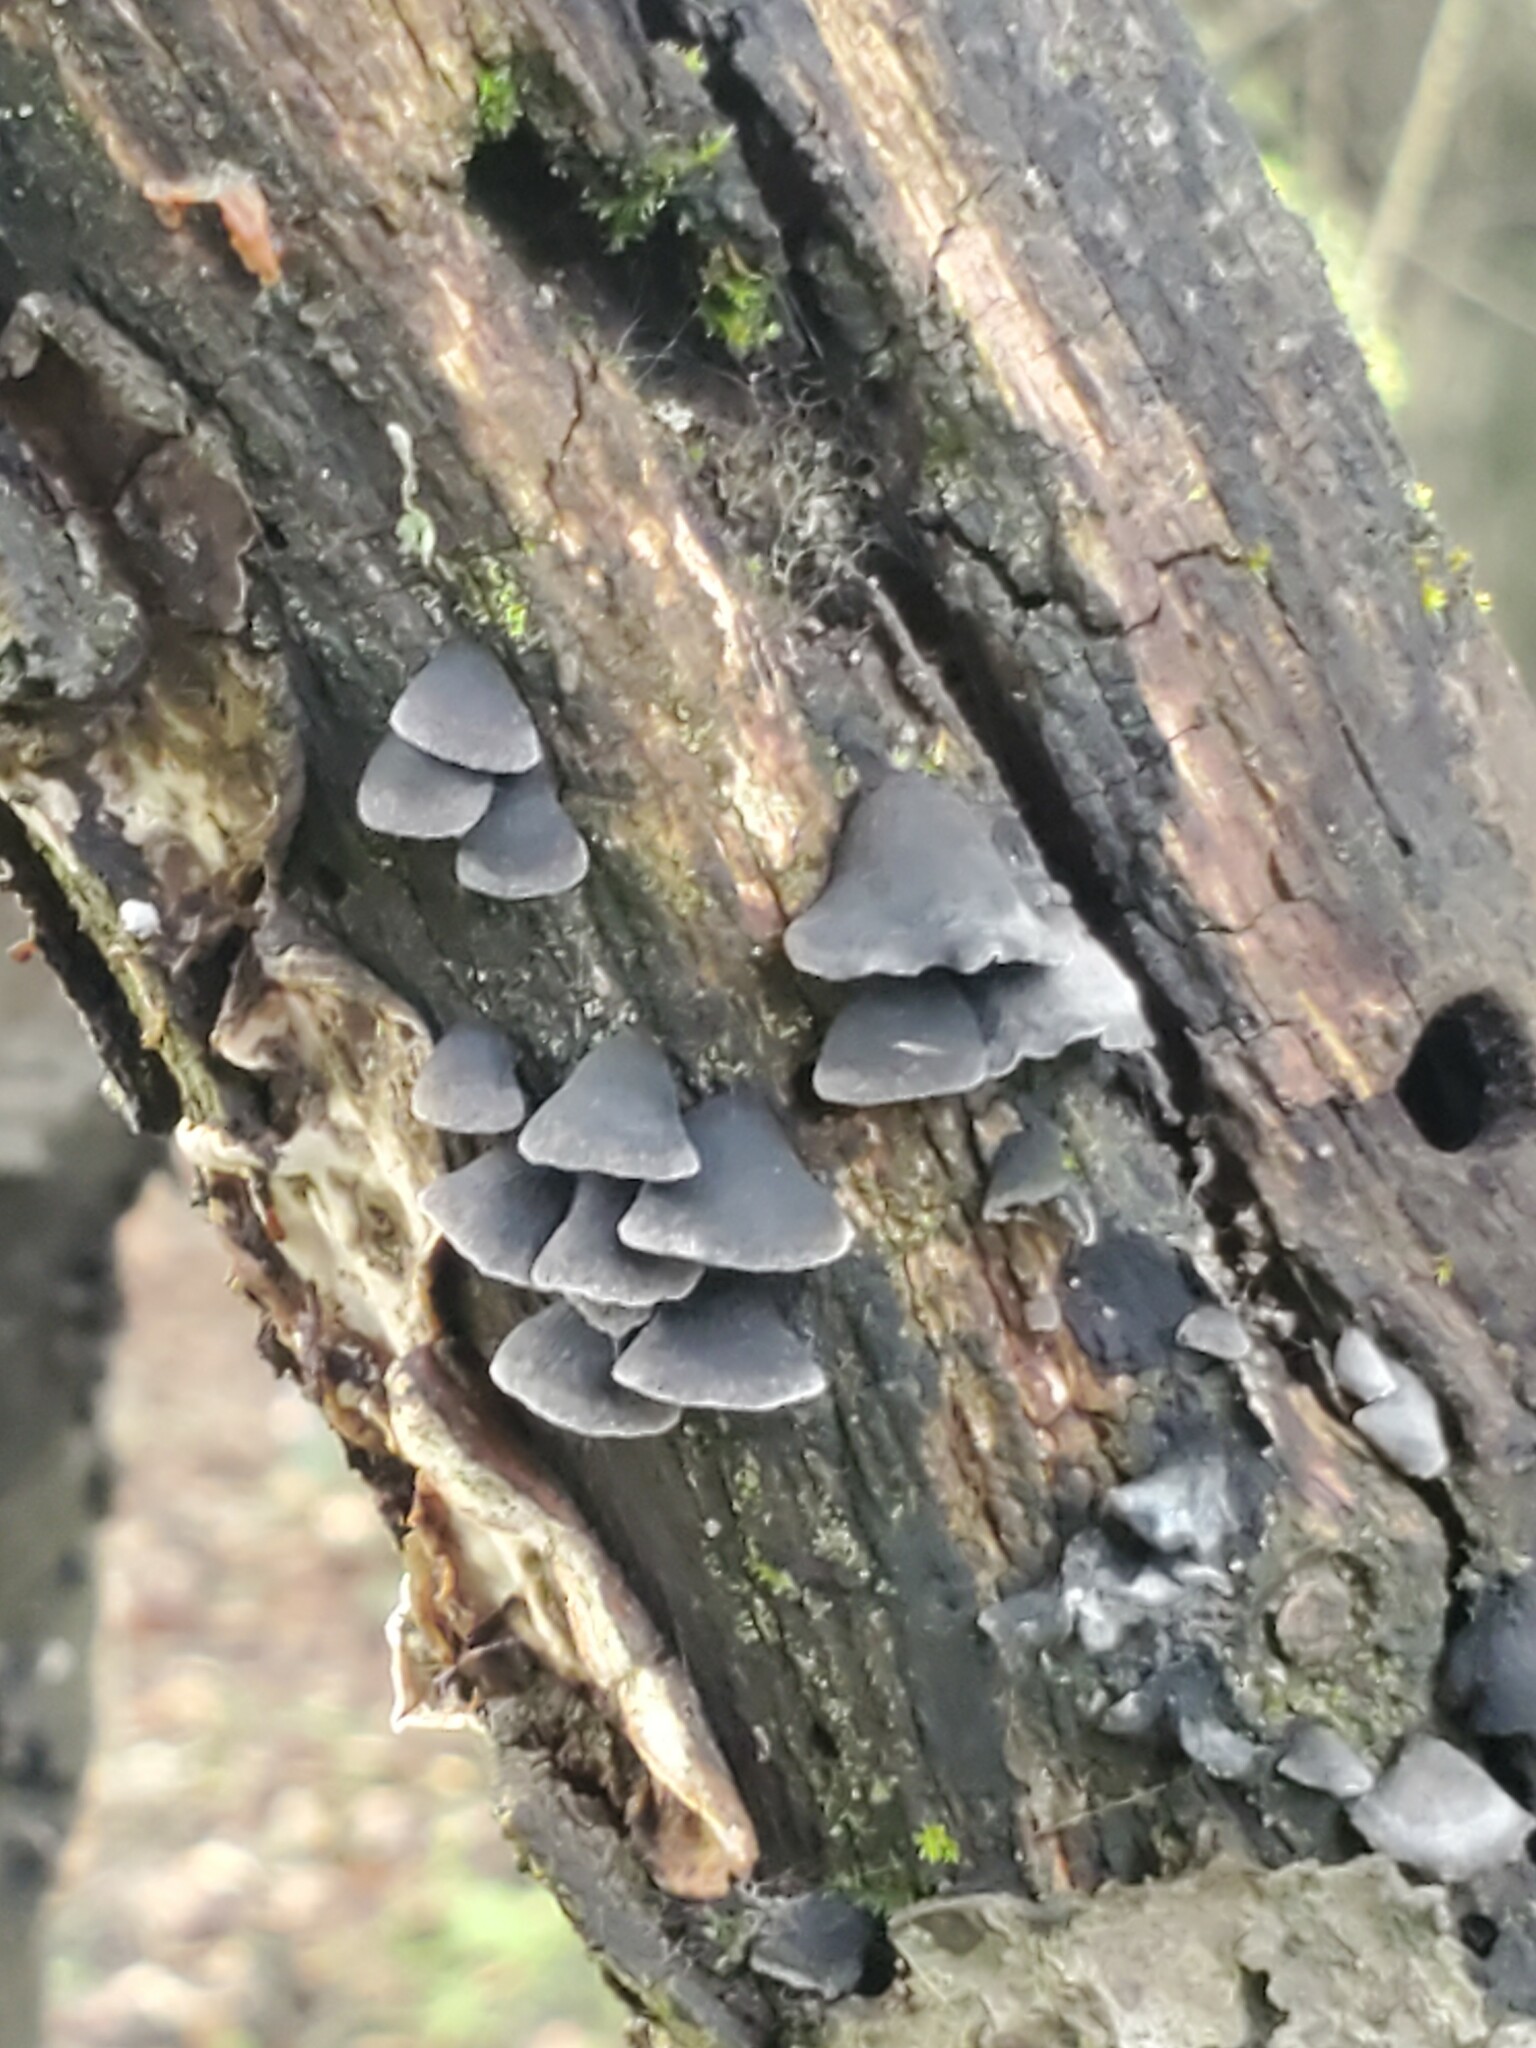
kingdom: Fungi
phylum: Basidiomycota
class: Agaricomycetes
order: Agaricales
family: Pleurotaceae
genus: Resupinatus
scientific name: Resupinatus applicatus
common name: Smoked oysterling
